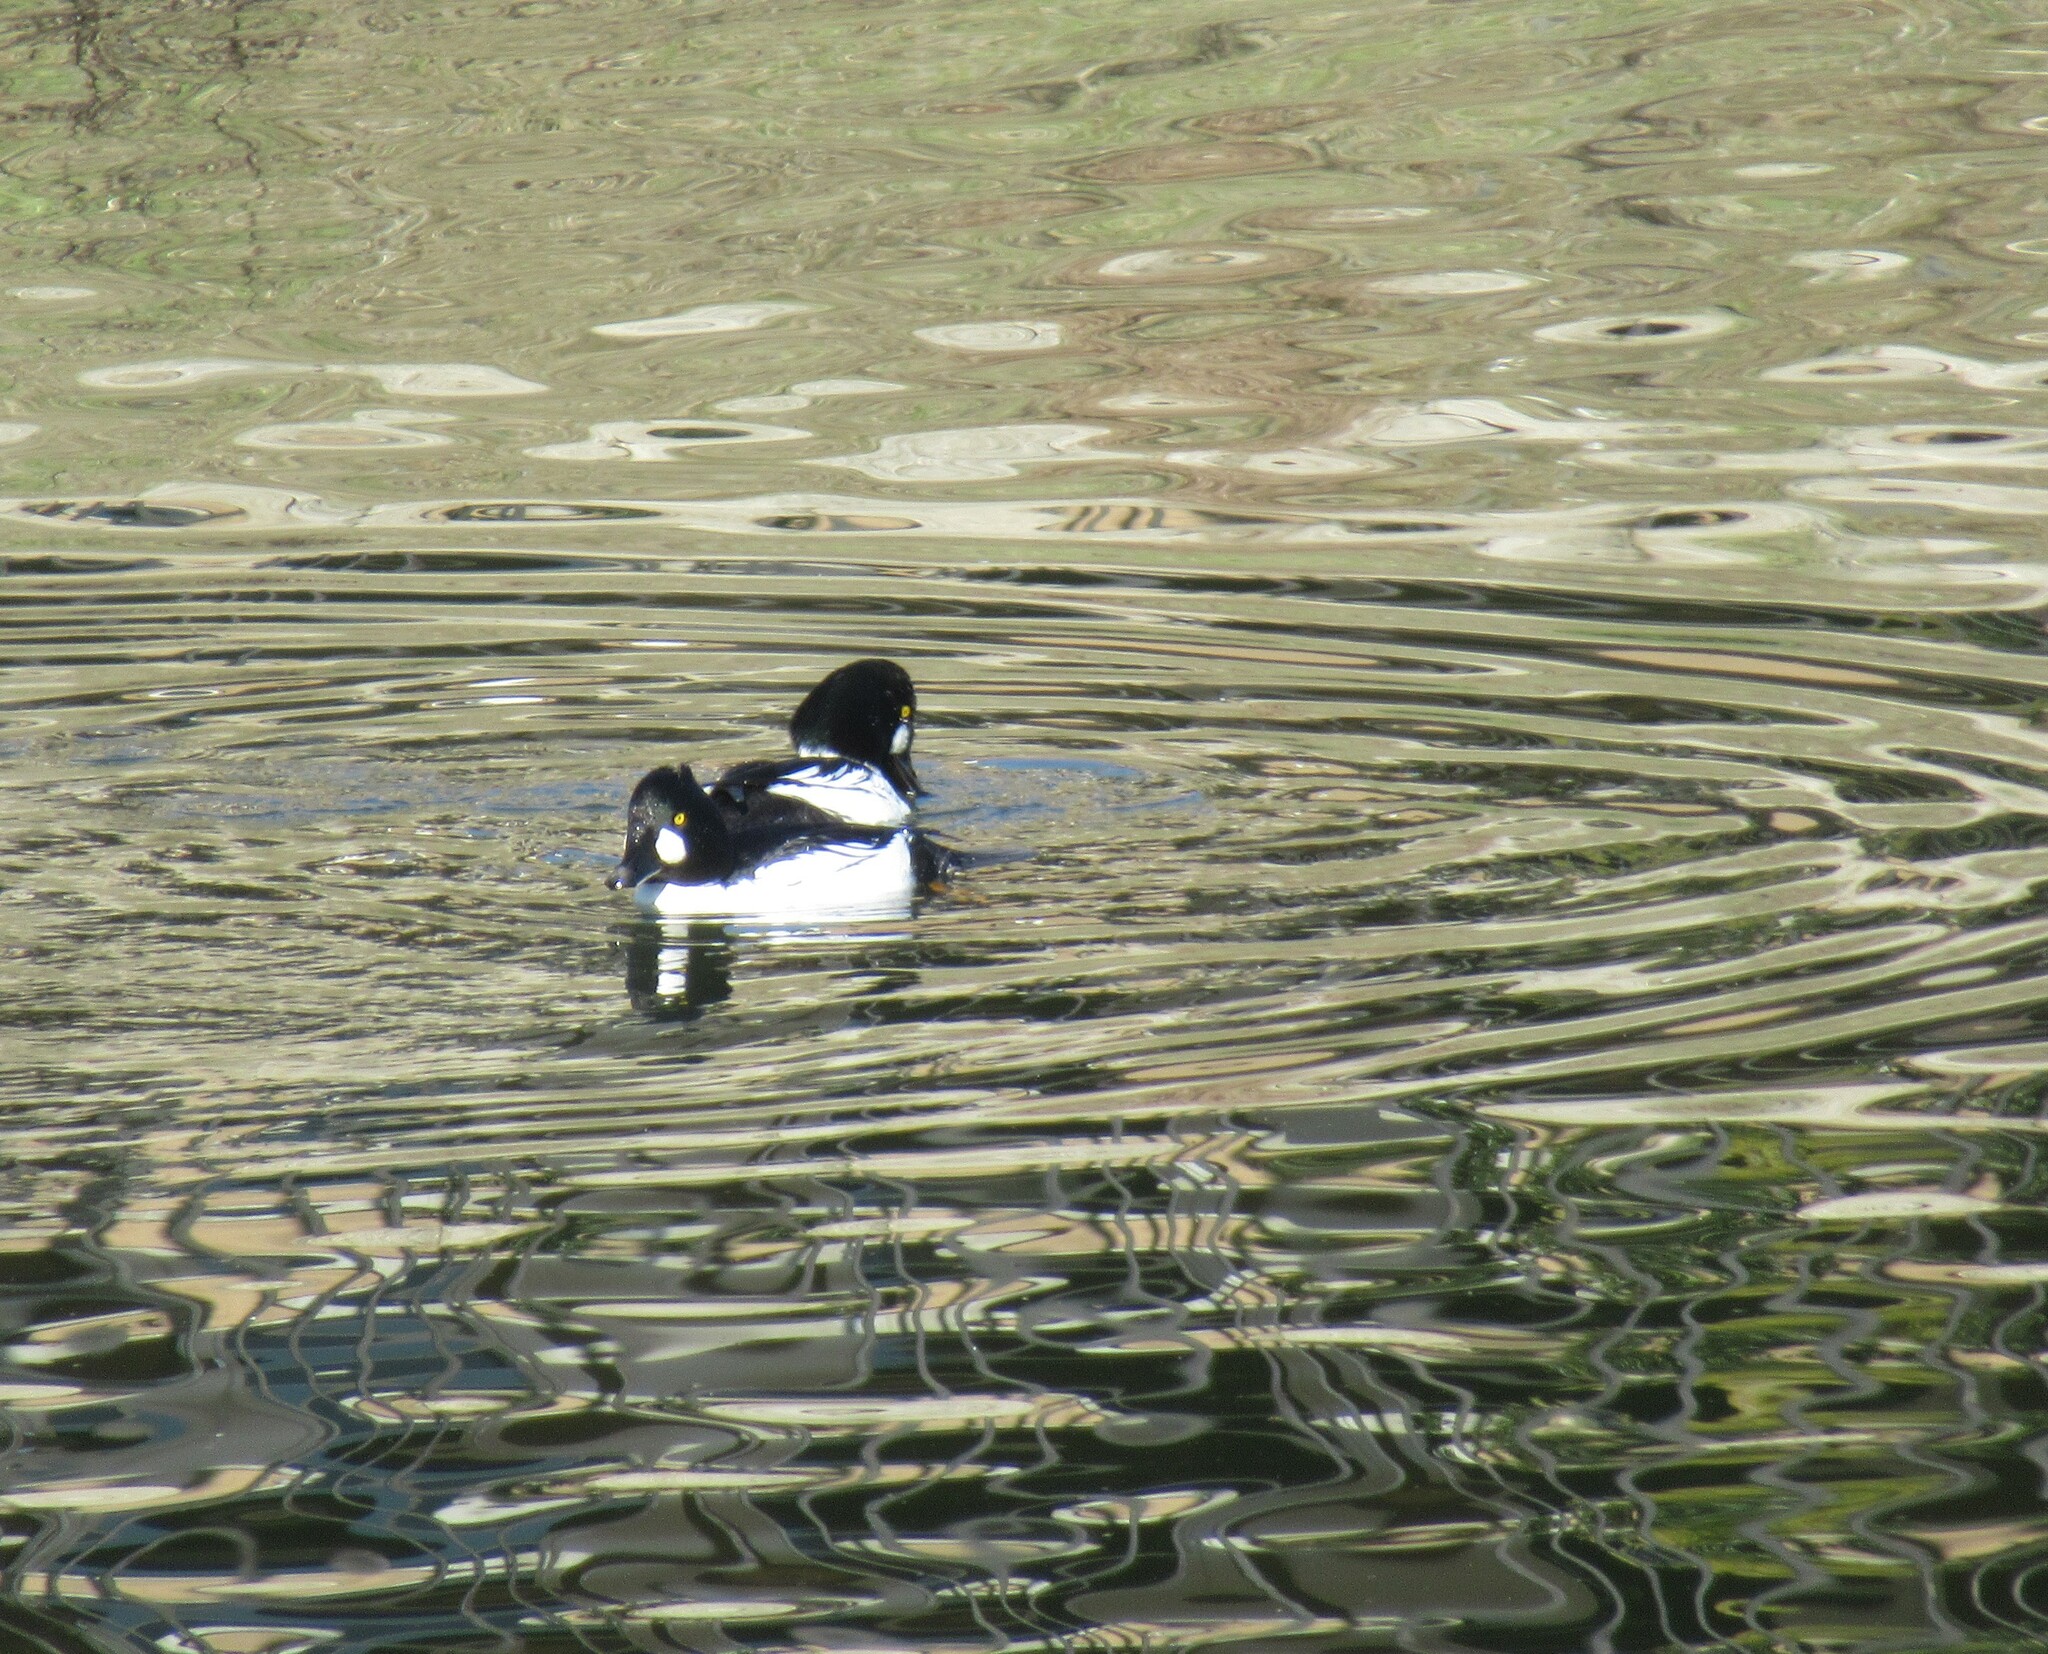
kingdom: Animalia
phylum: Chordata
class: Aves
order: Anseriformes
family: Anatidae
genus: Bucephala
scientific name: Bucephala clangula
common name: Common goldeneye
